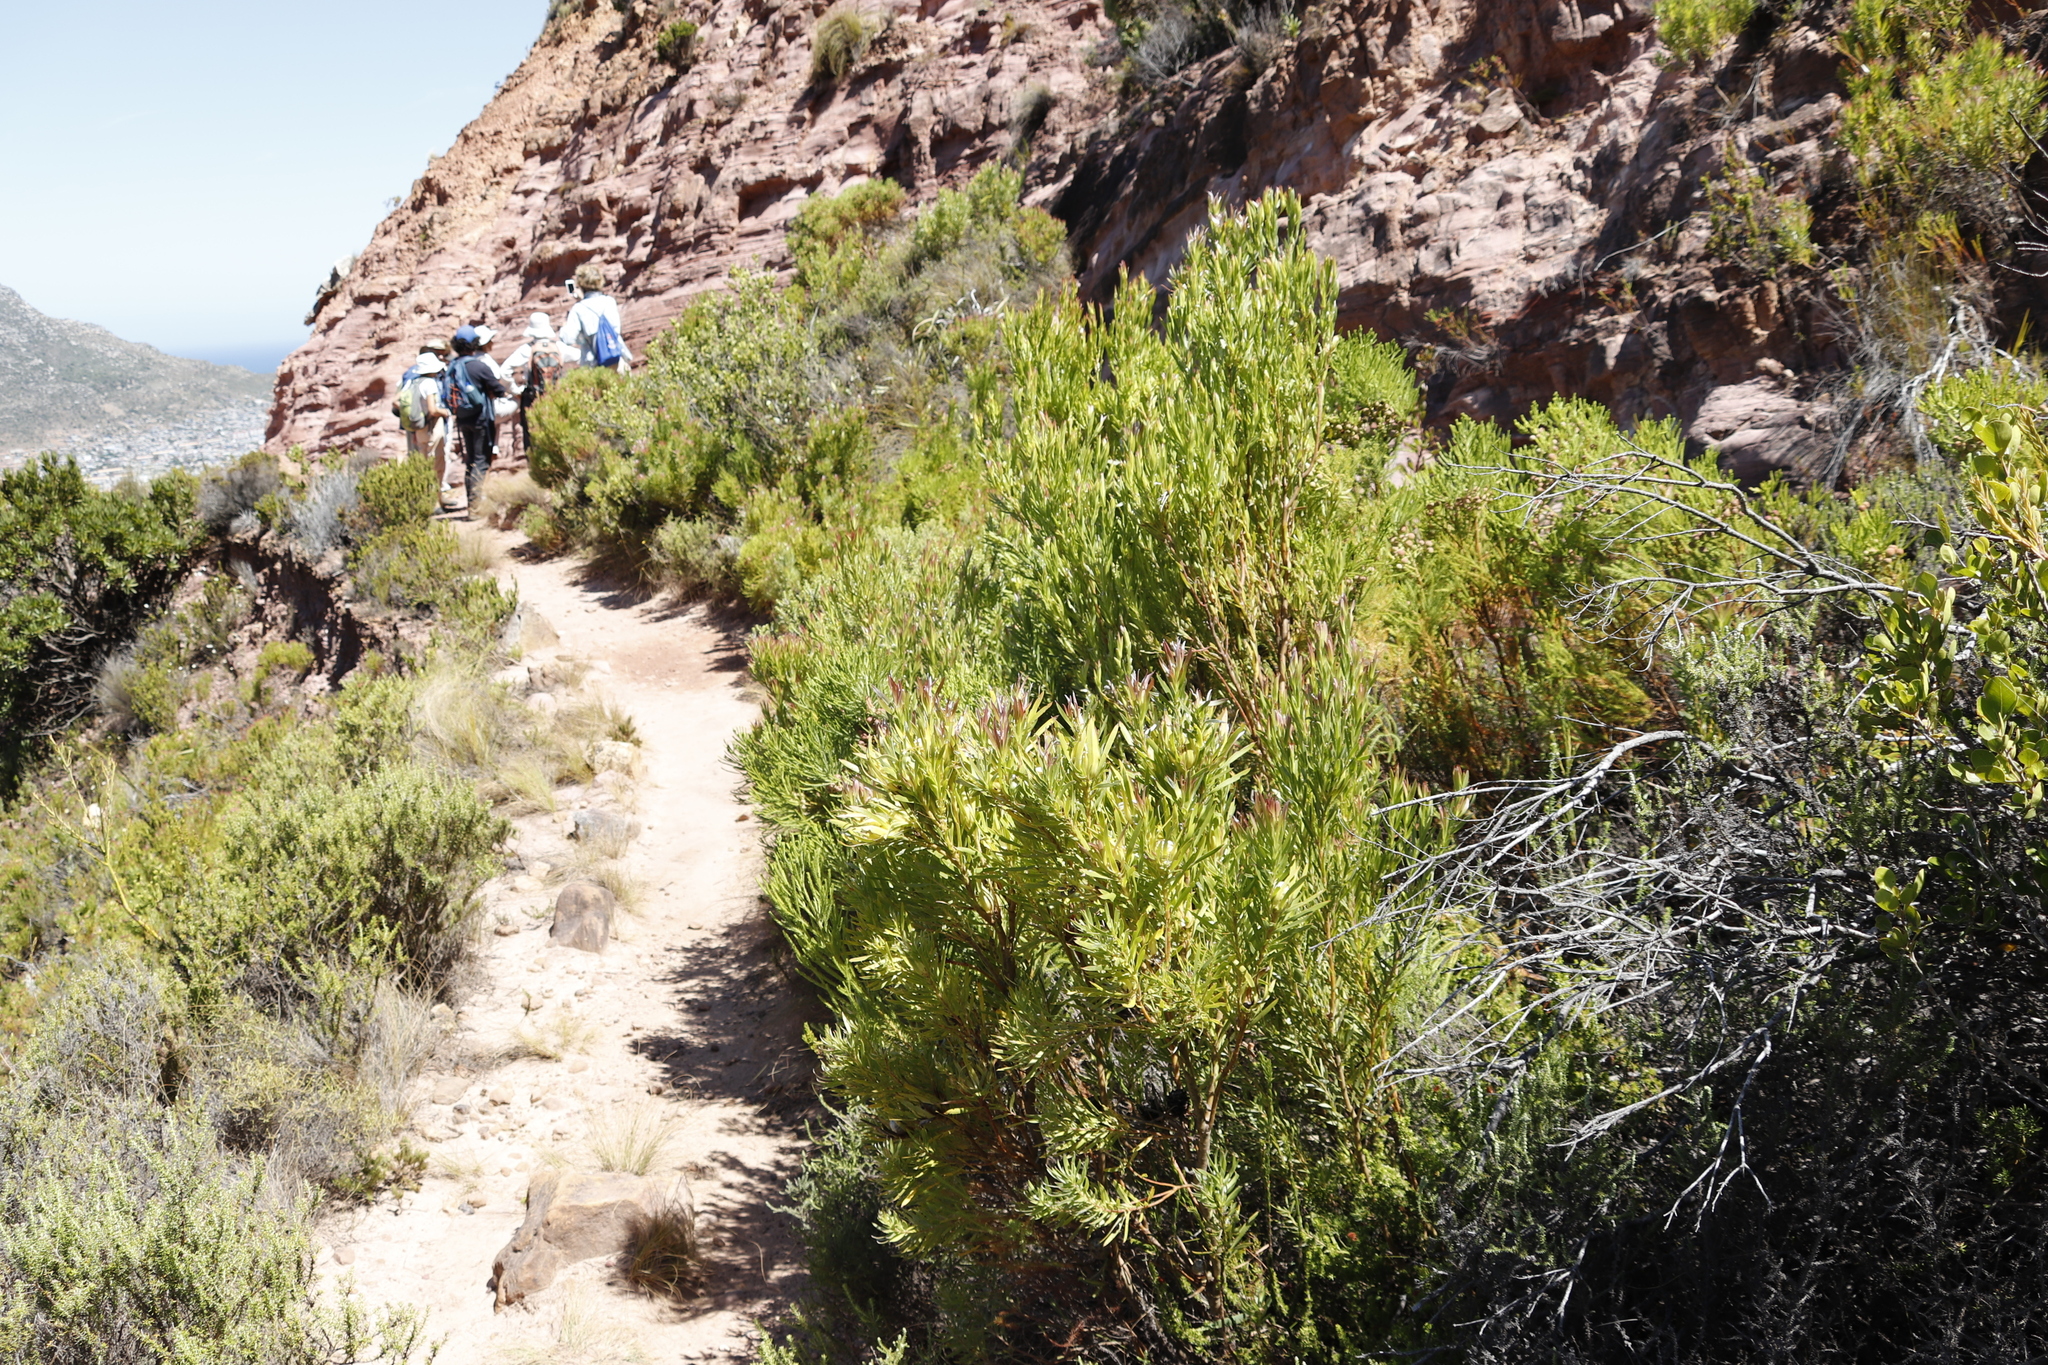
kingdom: Plantae
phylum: Tracheophyta
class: Magnoliopsida
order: Proteales
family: Proteaceae
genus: Leucadendron
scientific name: Leucadendron xanthoconus
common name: Sickle-leaf conebush
